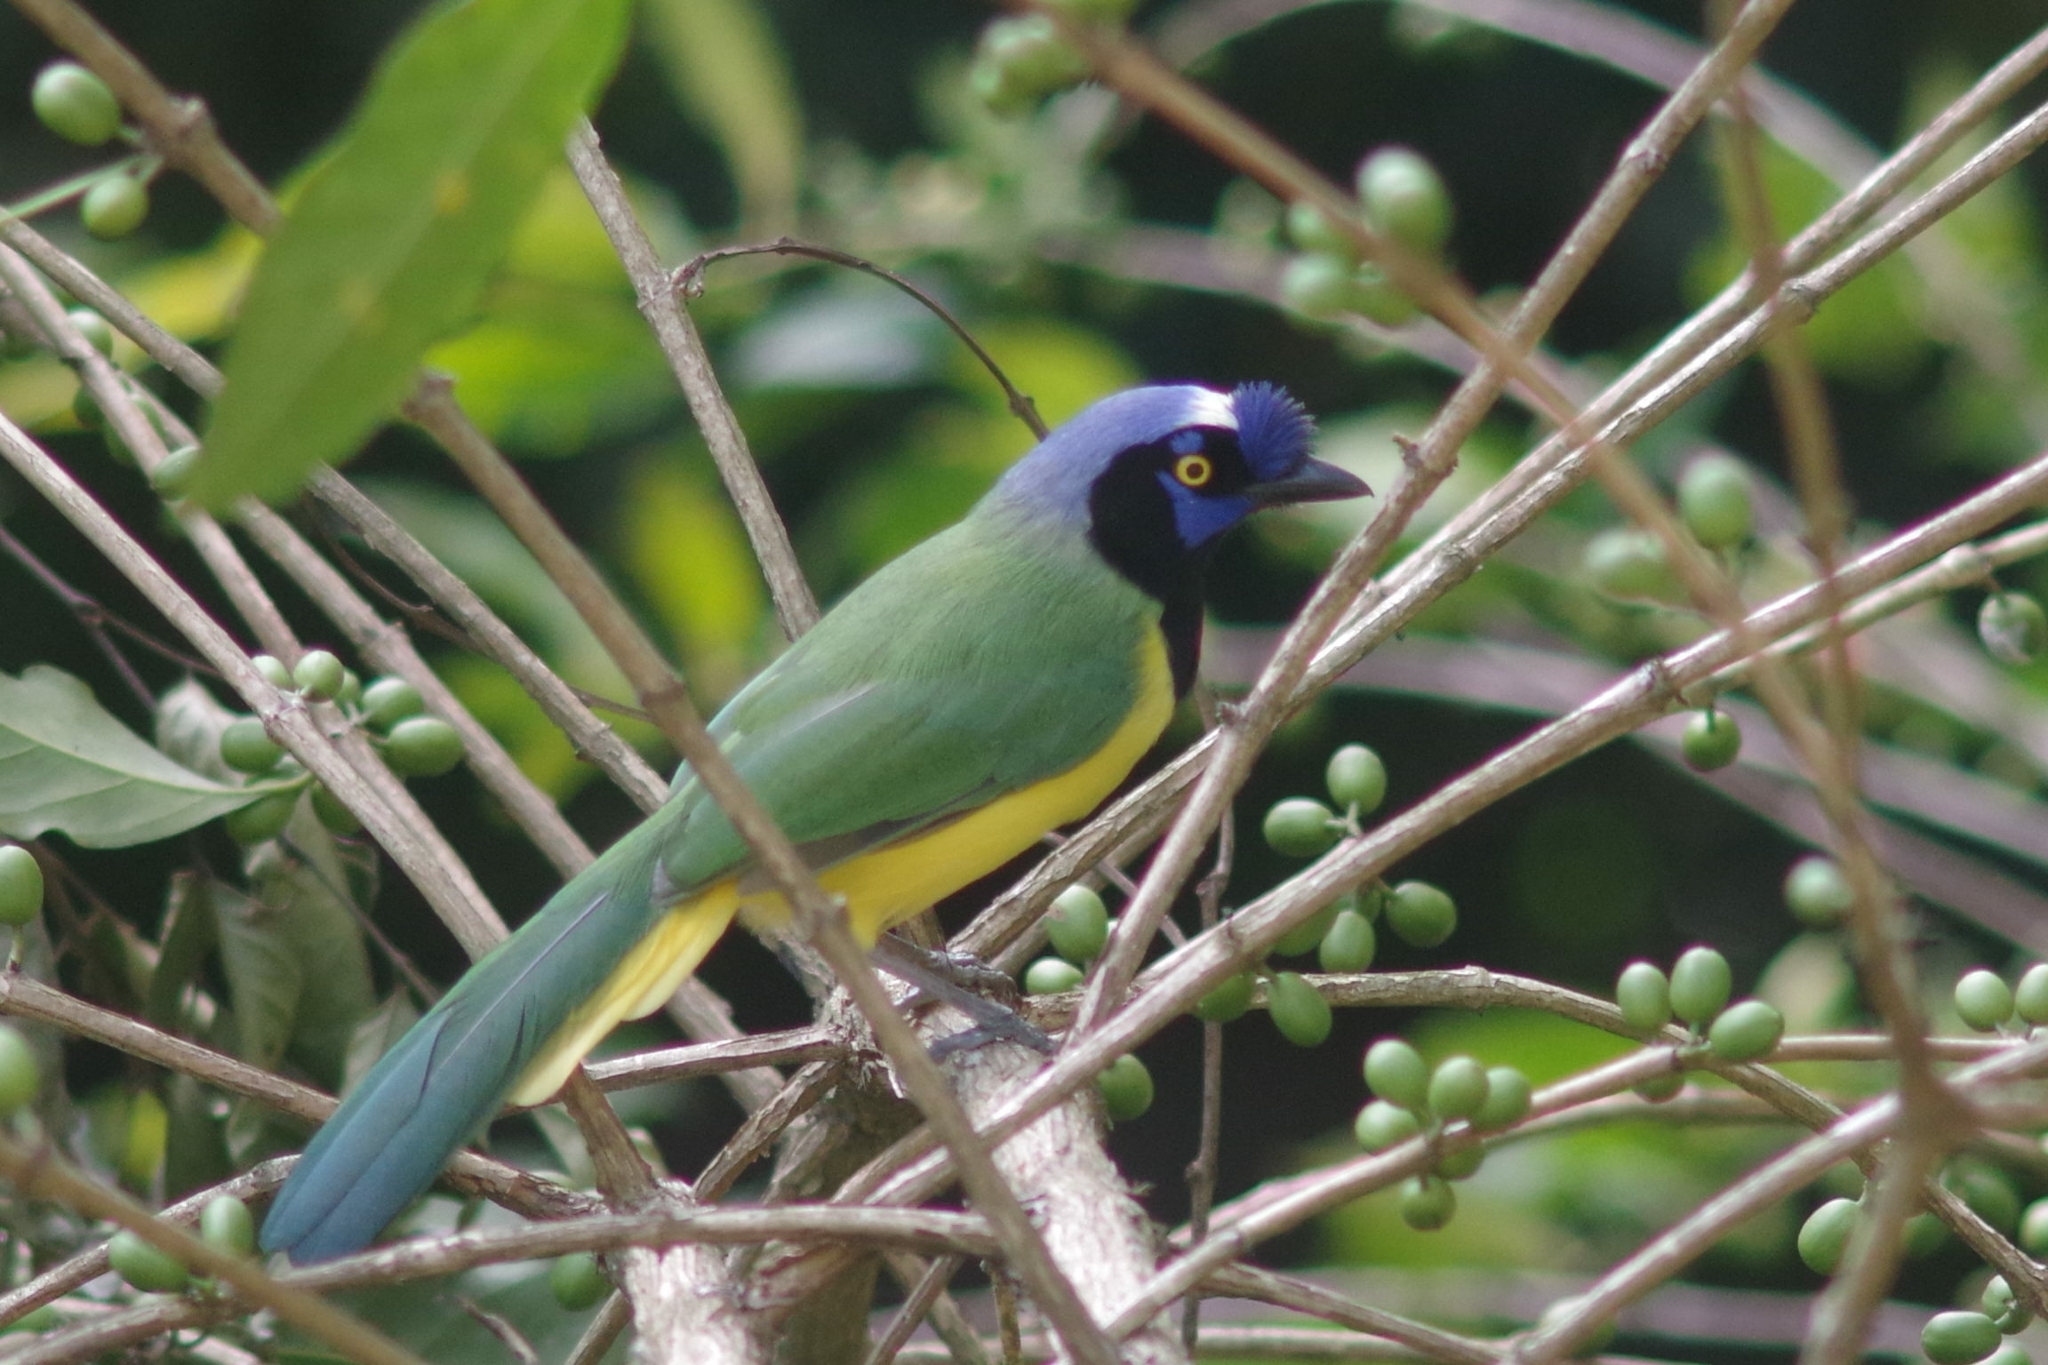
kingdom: Animalia
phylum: Chordata
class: Aves
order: Passeriformes
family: Corvidae
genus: Cyanocorax
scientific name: Cyanocorax yncas
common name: Green jay
